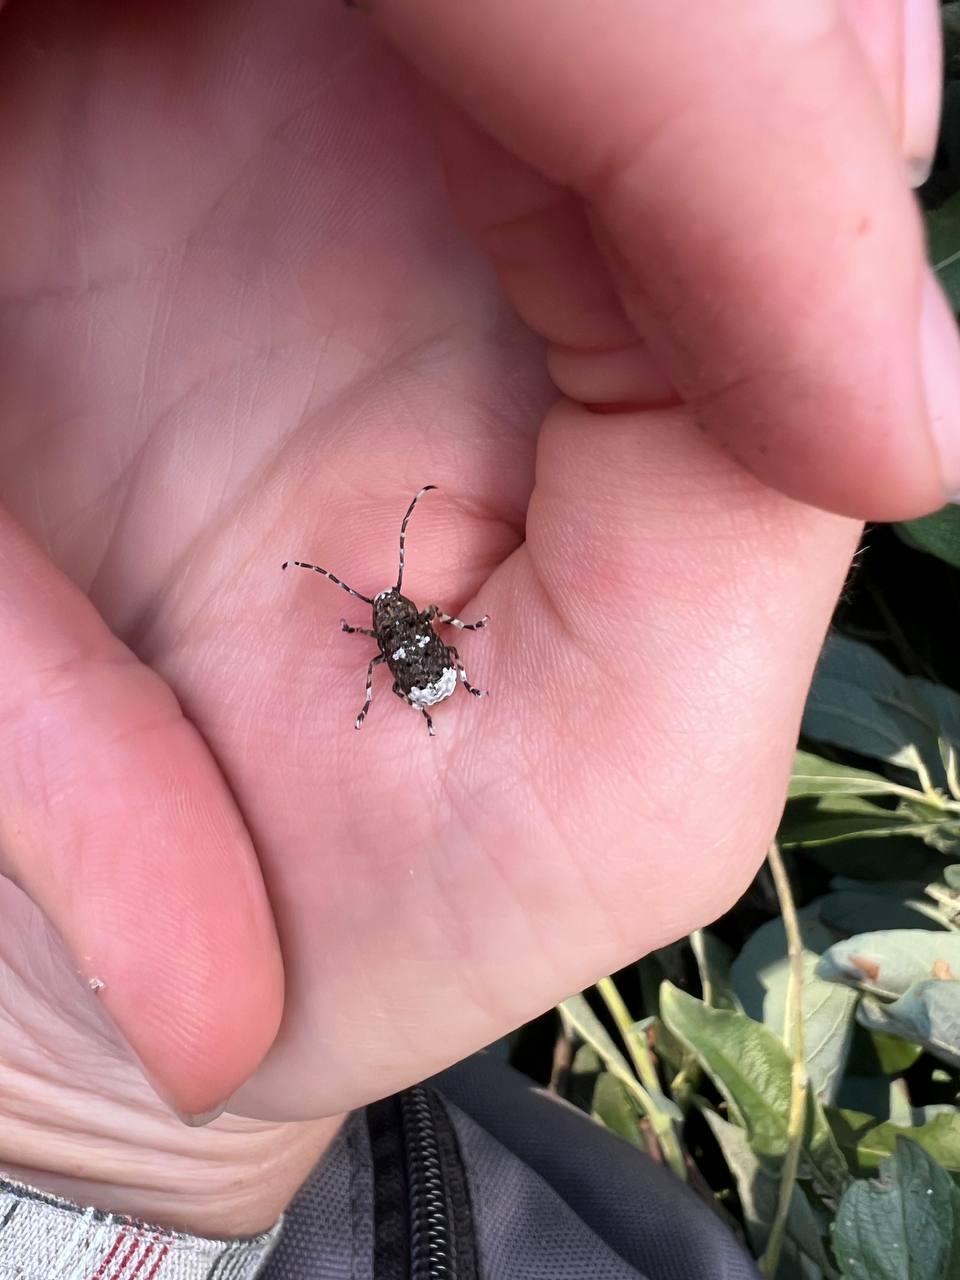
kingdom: Animalia
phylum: Arthropoda
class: Insecta
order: Coleoptera
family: Anthribidae
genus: Platystomos
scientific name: Platystomos albinus
